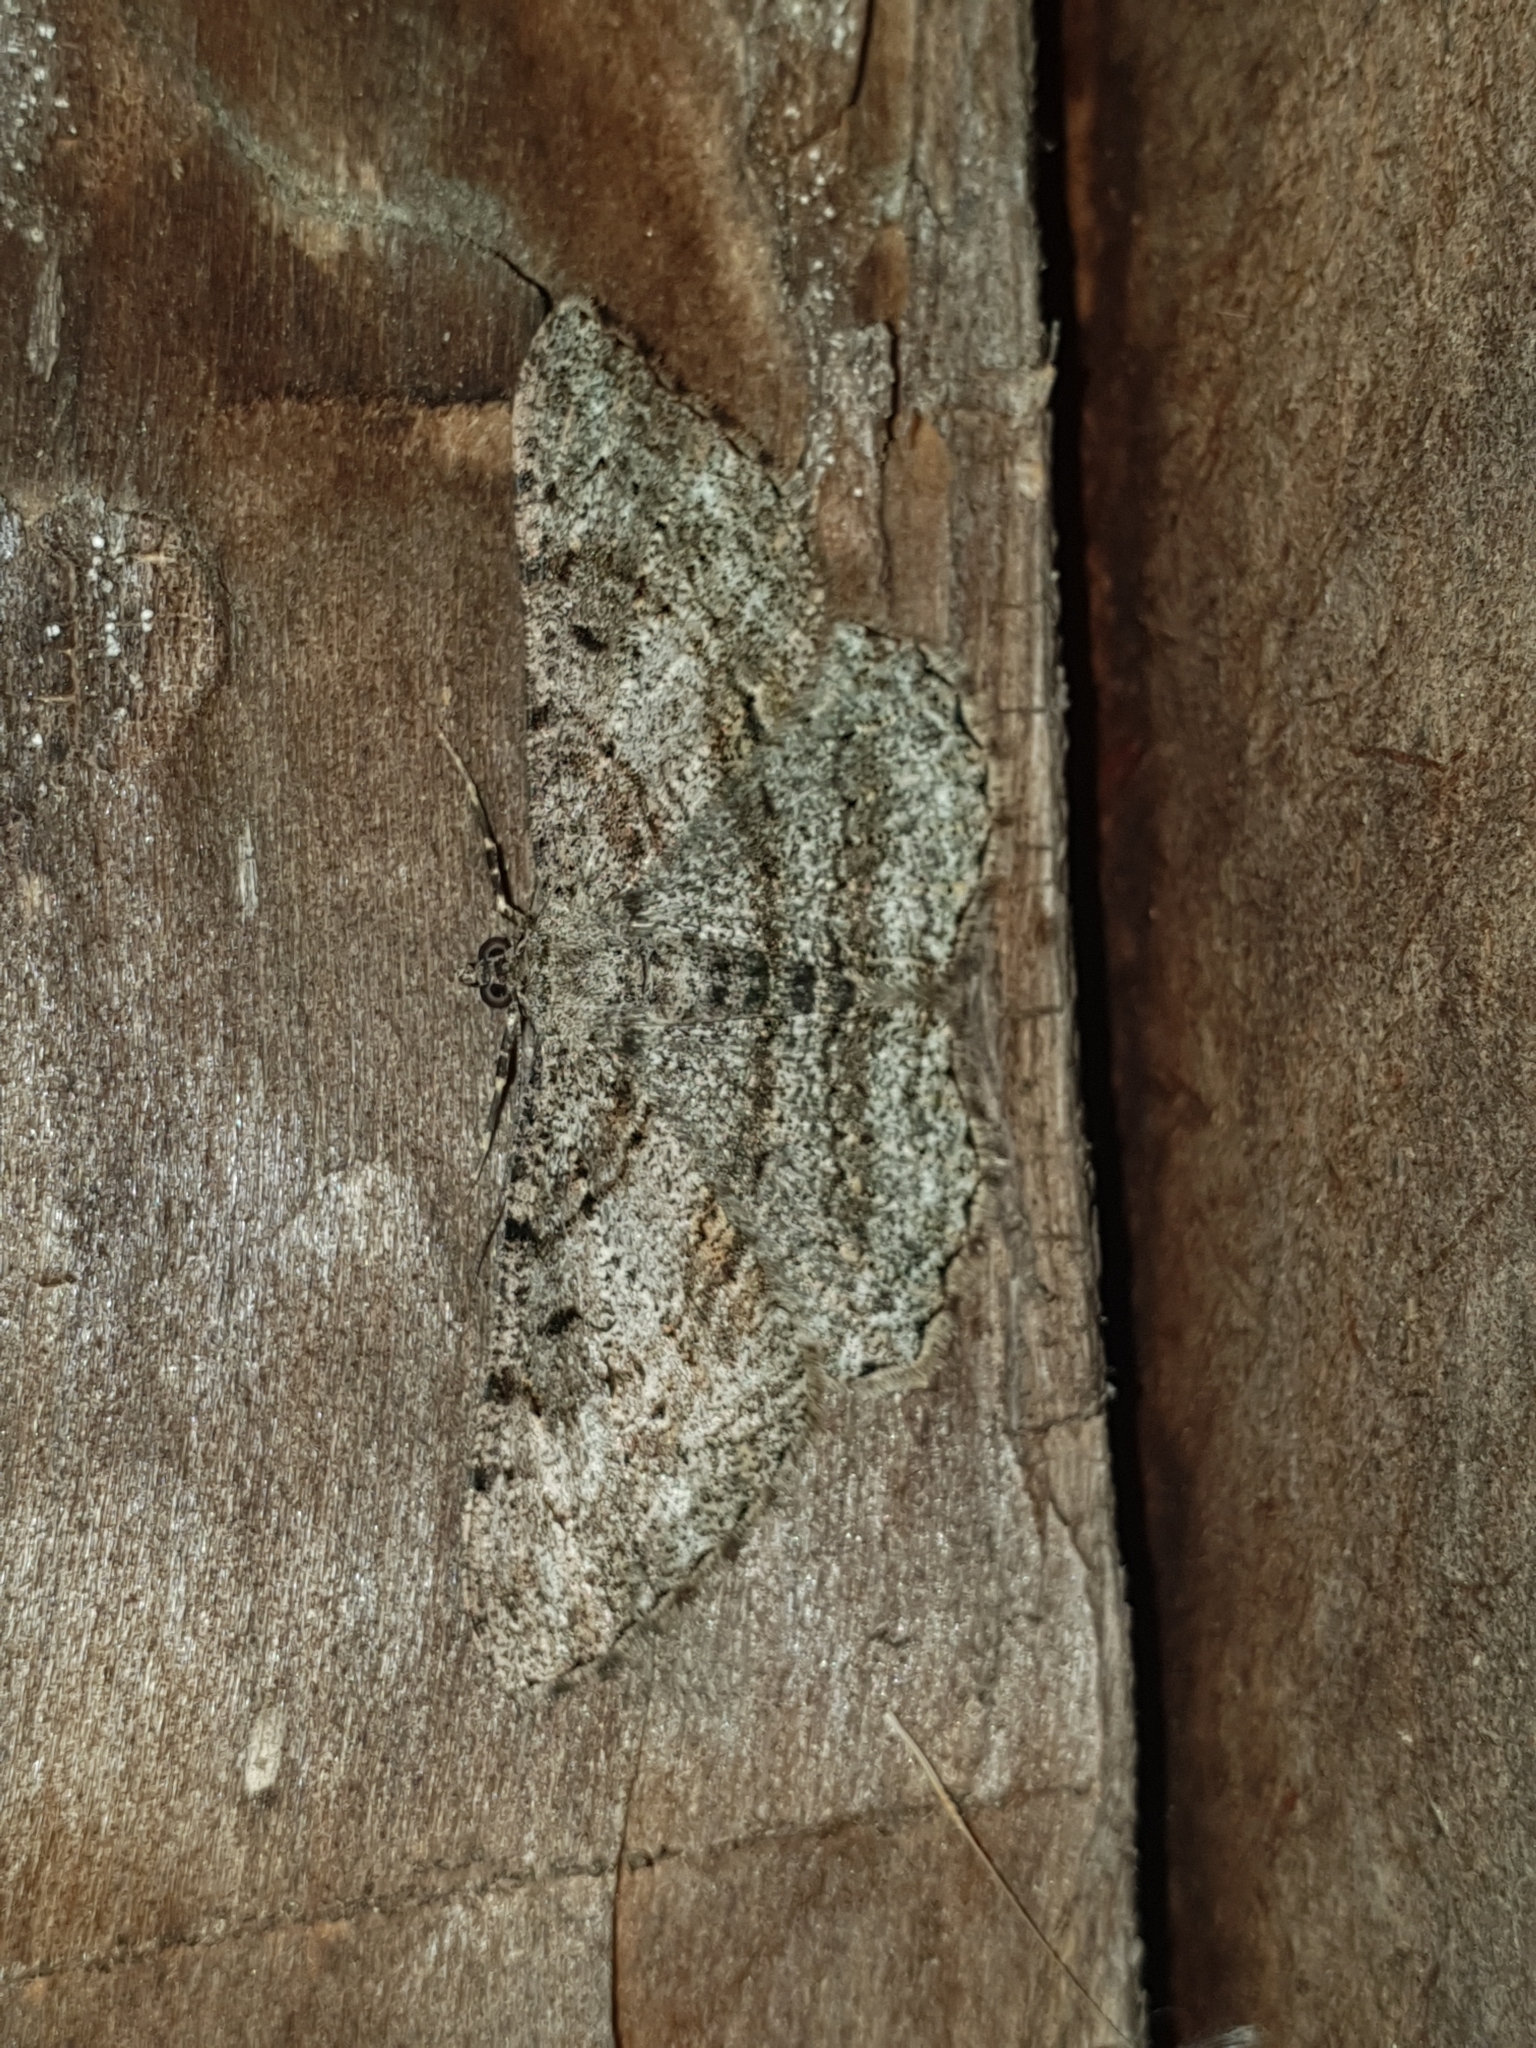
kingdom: Animalia
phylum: Arthropoda
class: Insecta
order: Lepidoptera
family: Geometridae
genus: Peribatodes
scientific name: Peribatodes rhomboidaria
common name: Willow beauty
